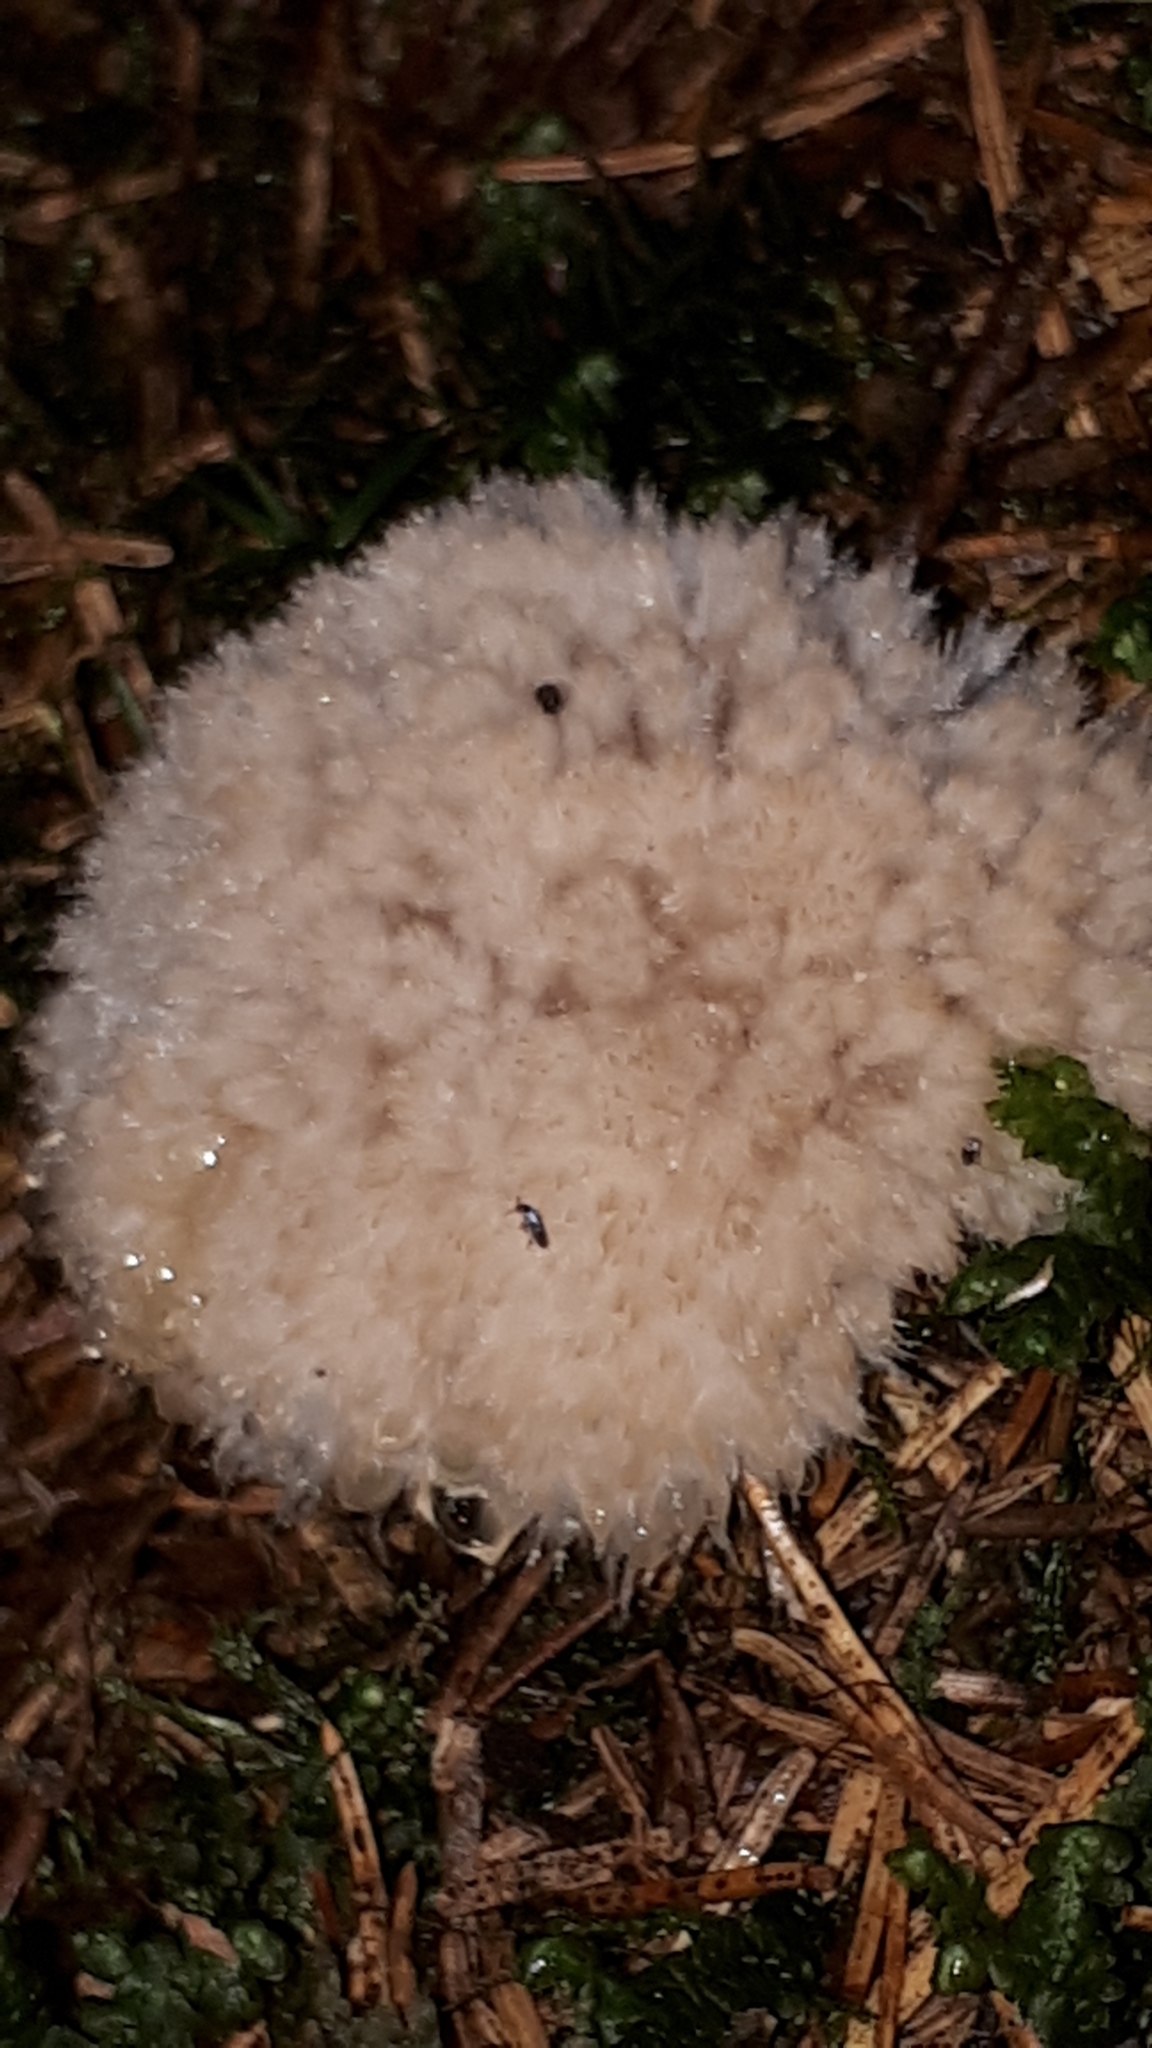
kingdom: Fungi
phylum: Basidiomycota
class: Agaricomycetes
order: Polyporales
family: Dacryobolaceae
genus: Postia
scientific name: Postia ptychogaster
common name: Powderpuff bracket
